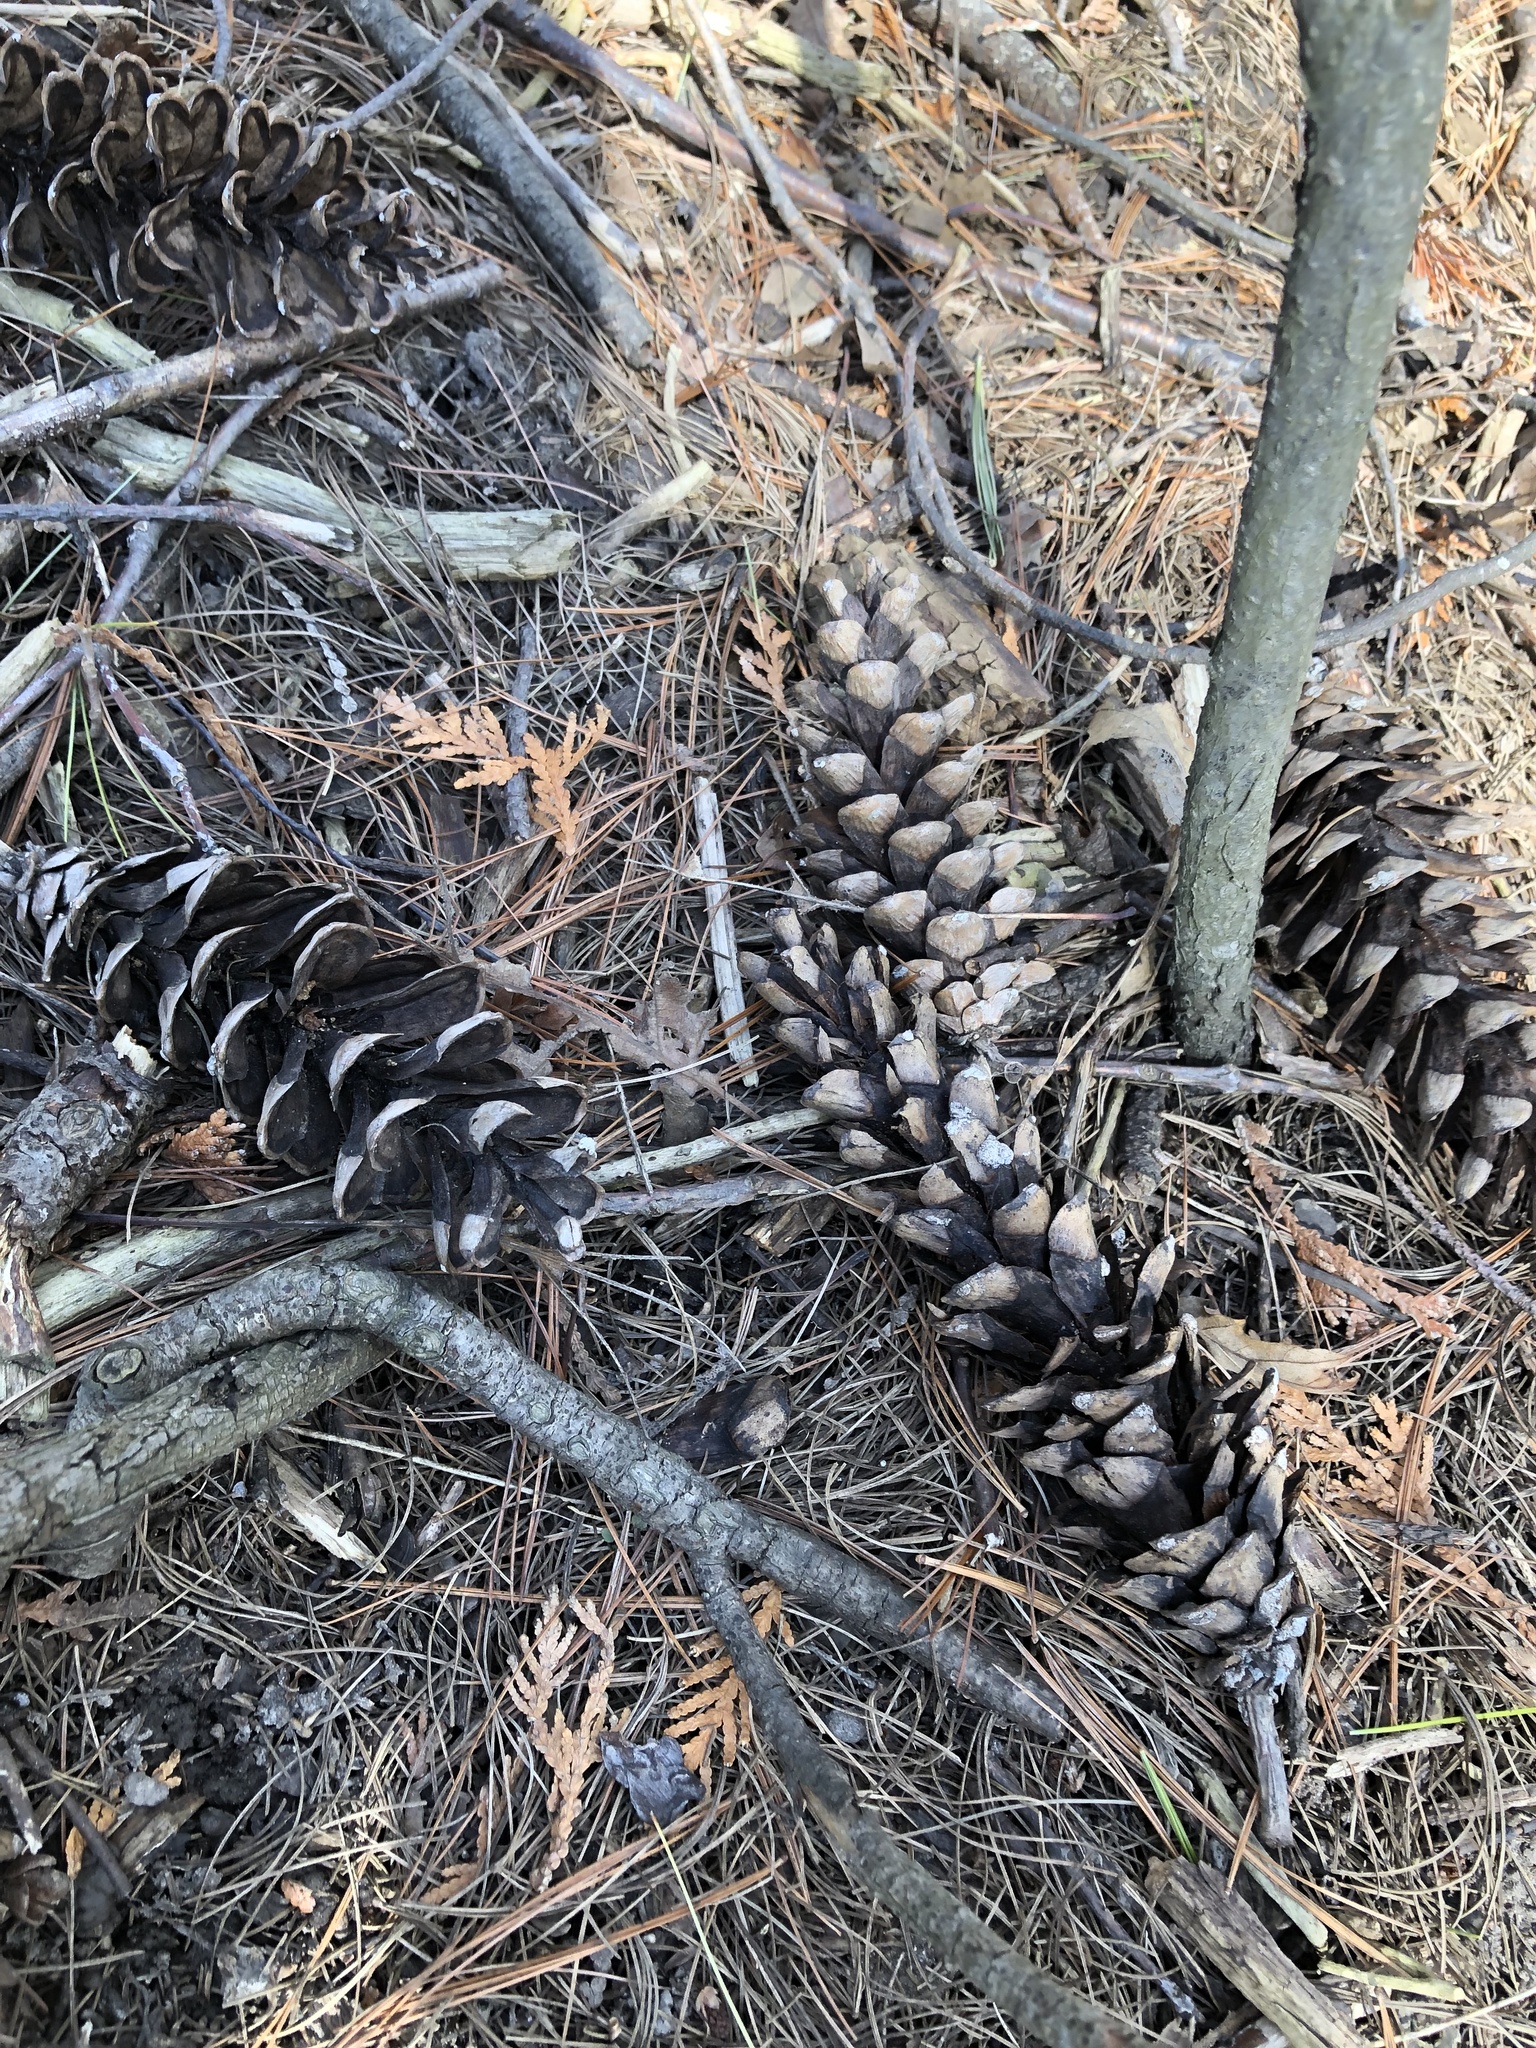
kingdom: Plantae
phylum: Tracheophyta
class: Pinopsida
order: Pinales
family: Pinaceae
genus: Pinus
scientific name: Pinus strobus
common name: Weymouth pine
